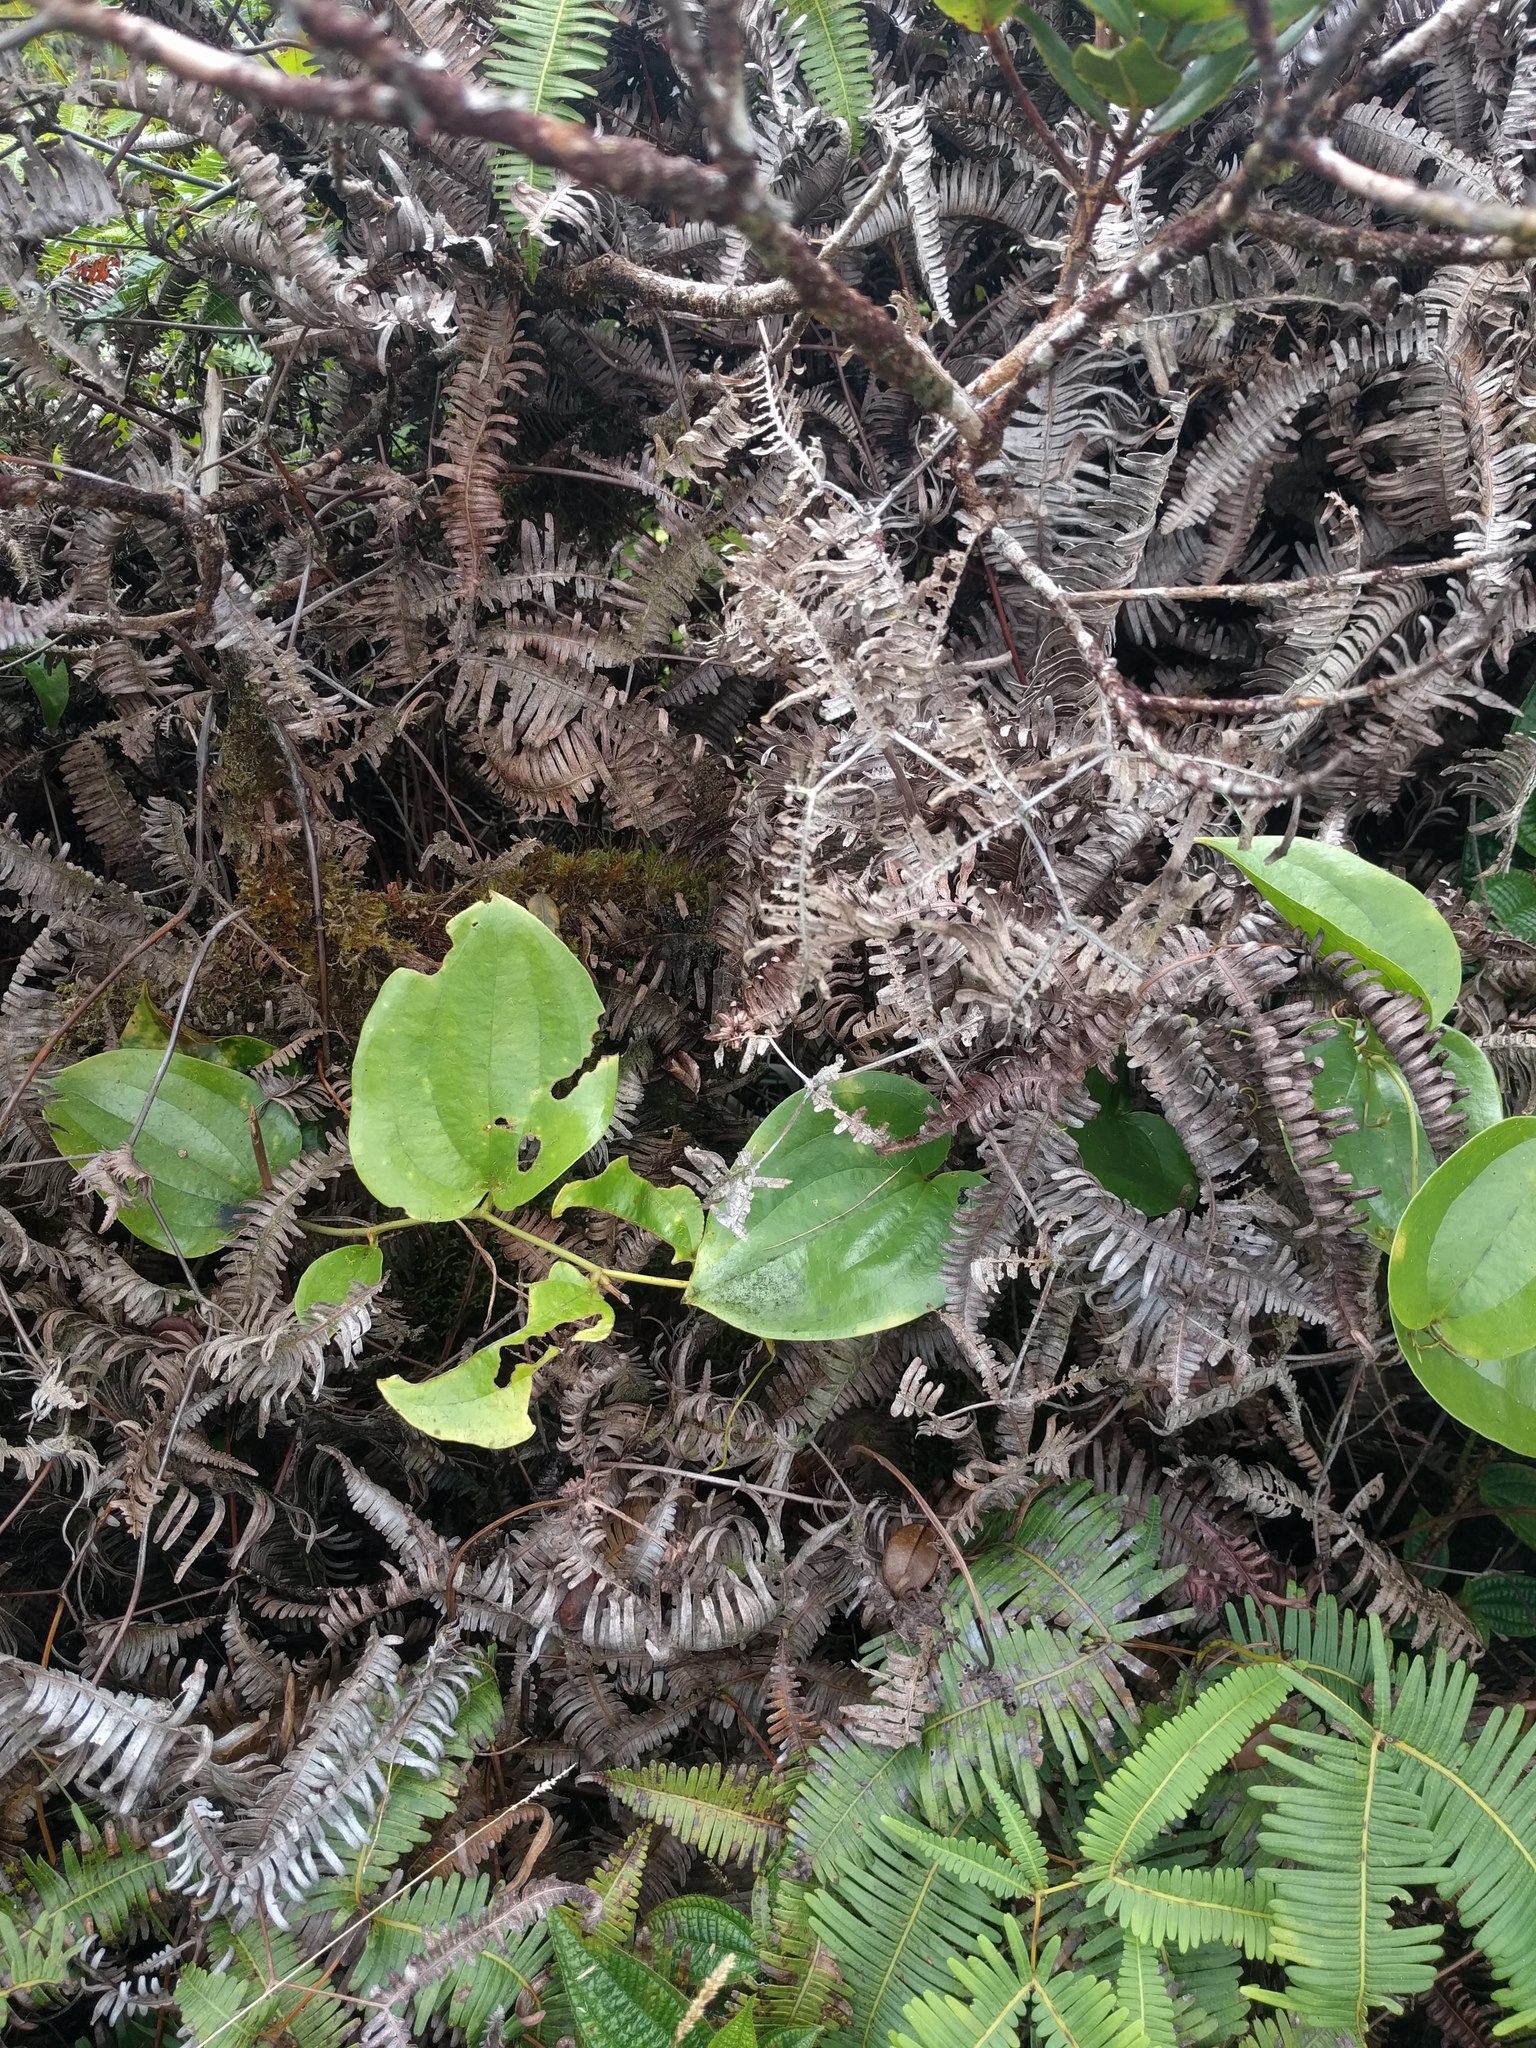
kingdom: Plantae
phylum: Tracheophyta
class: Liliopsida
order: Liliales
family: Smilacaceae
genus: Smilax
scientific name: Smilax melastomifolia
